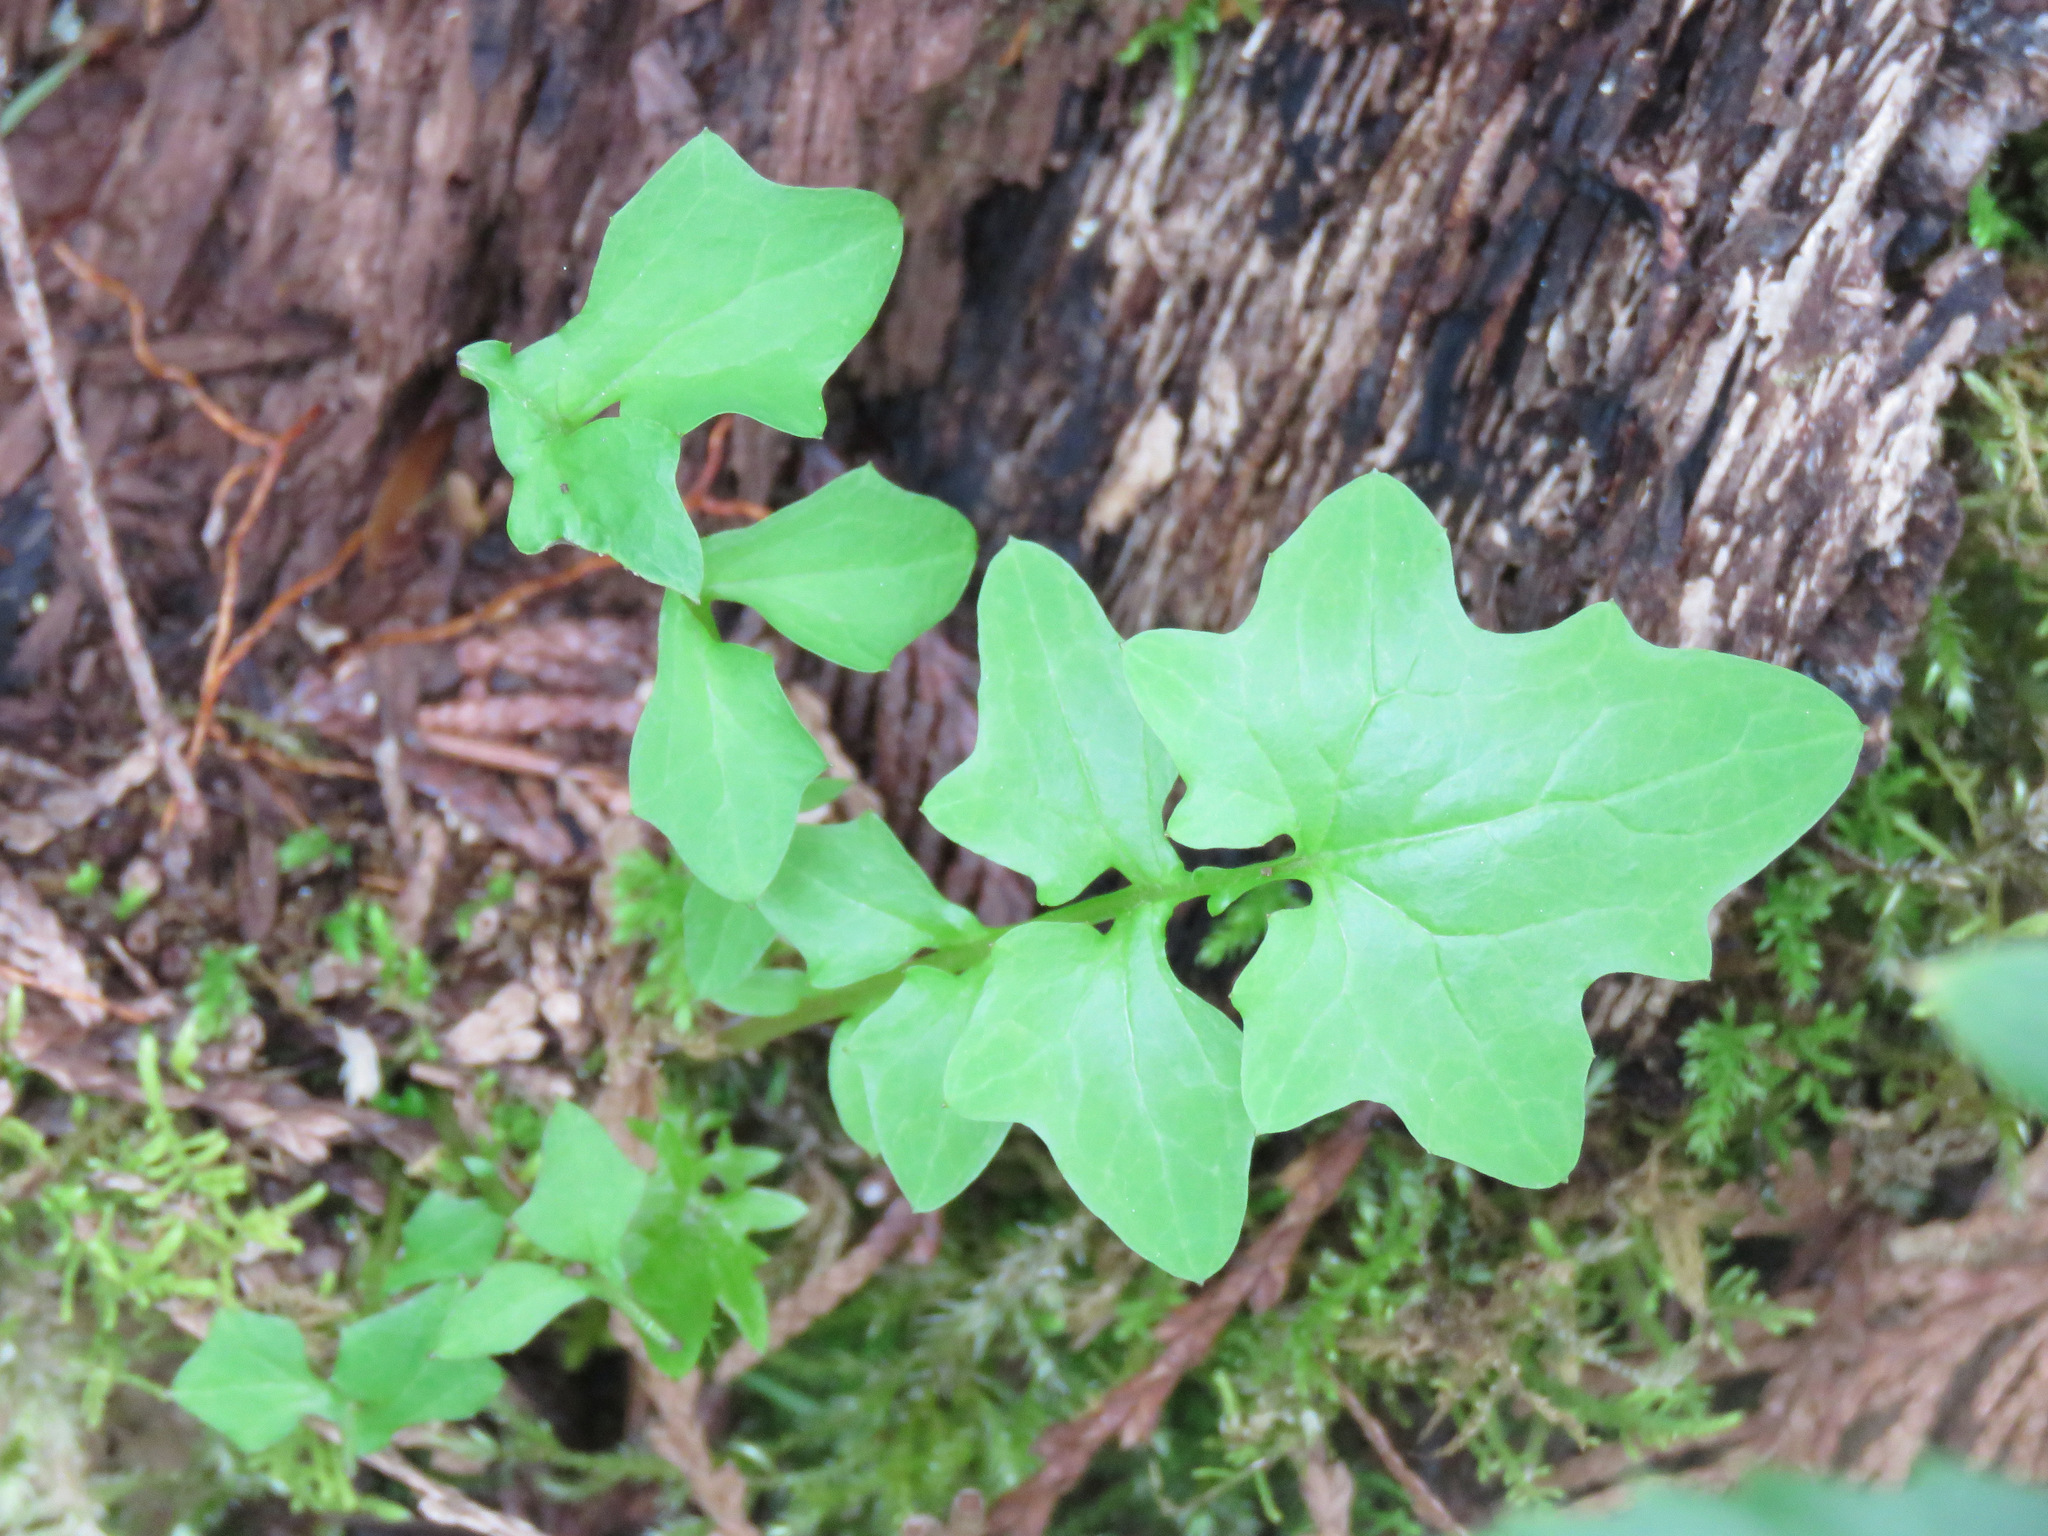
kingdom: Plantae
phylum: Tracheophyta
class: Magnoliopsida
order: Asterales
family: Asteraceae
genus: Mycelis
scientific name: Mycelis muralis
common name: Wall lettuce
